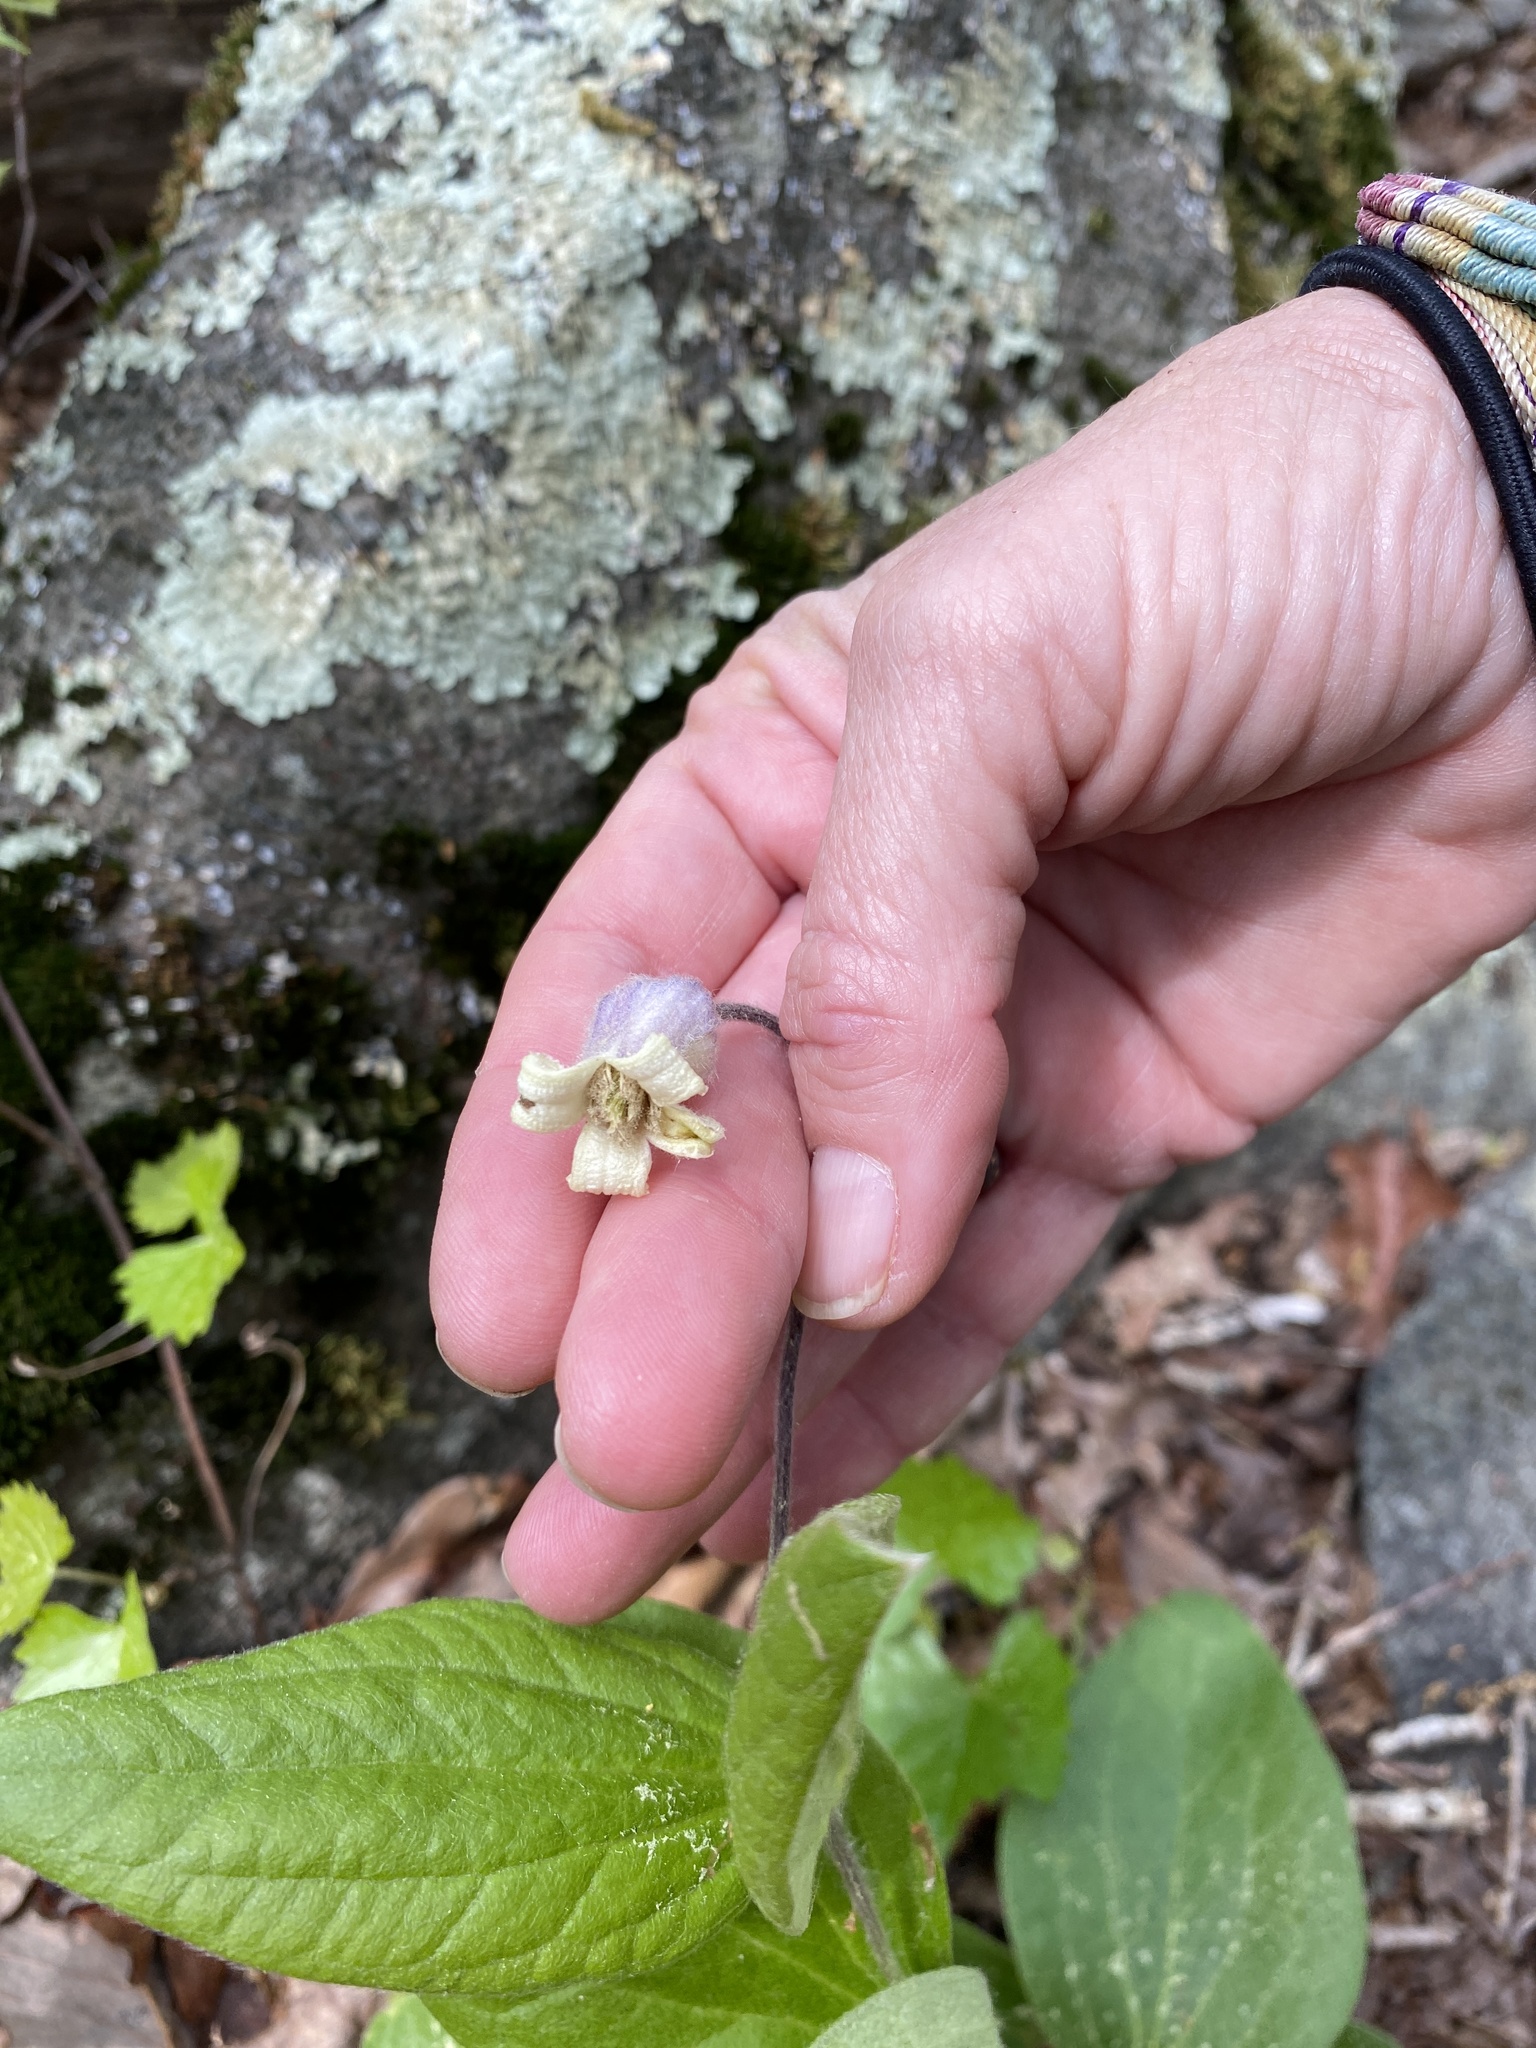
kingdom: Plantae
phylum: Tracheophyta
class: Magnoliopsida
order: Ranunculales
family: Ranunculaceae
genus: Clematis
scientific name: Clematis ochroleuca
